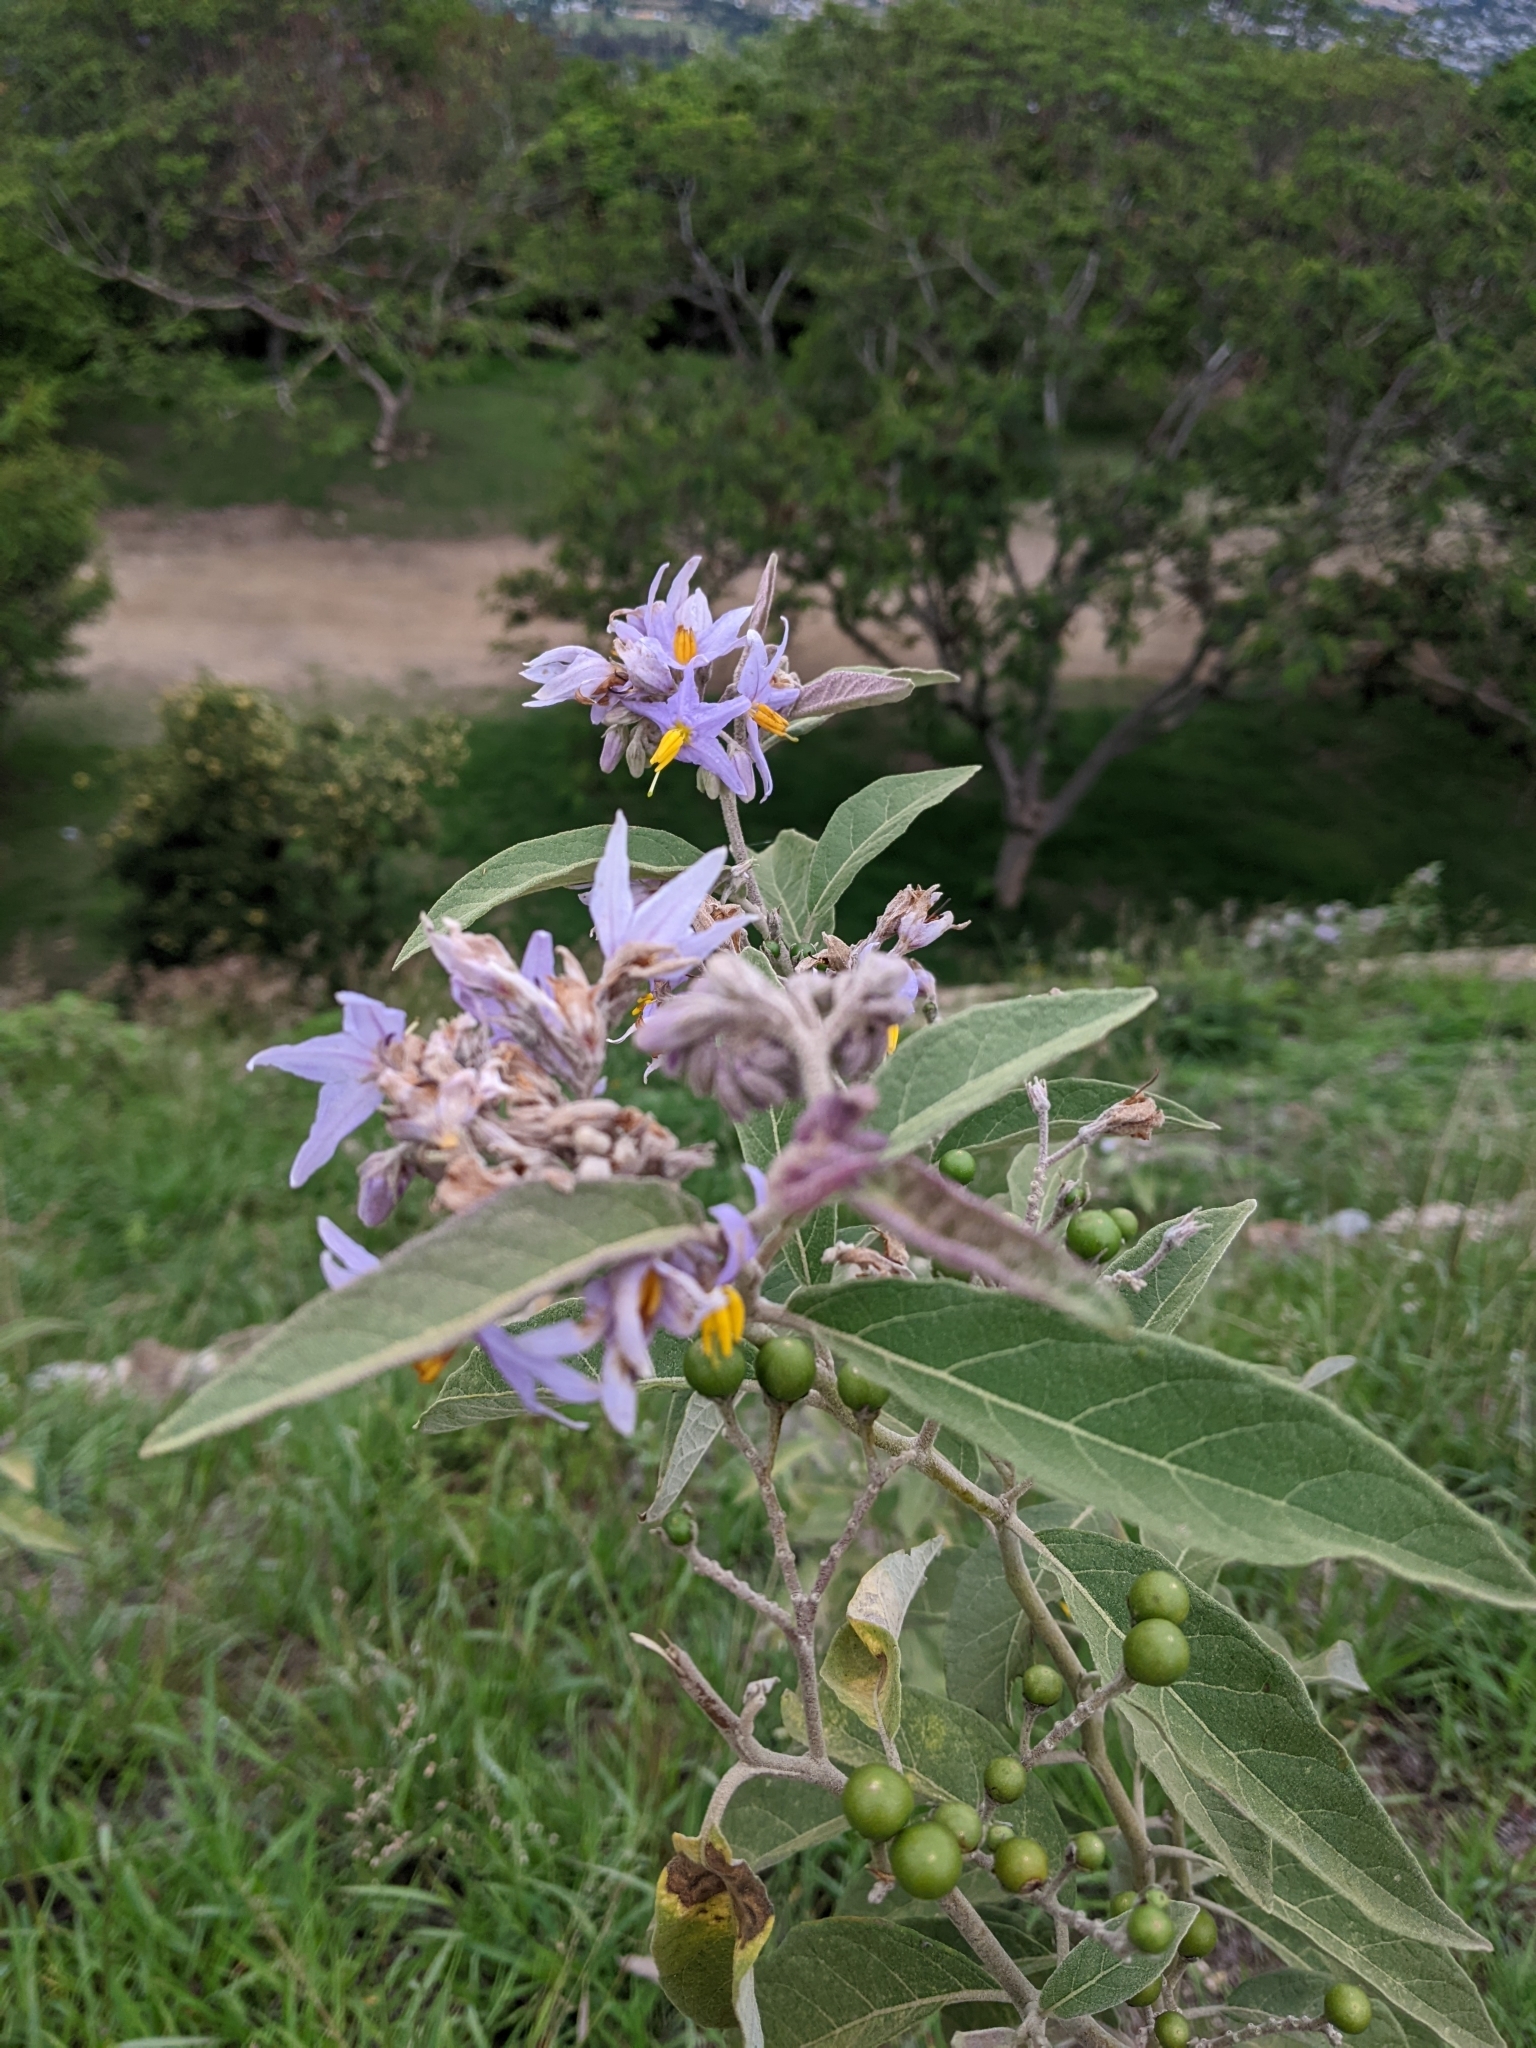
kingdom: Plantae
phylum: Tracheophyta
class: Magnoliopsida
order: Solanales
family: Solanaceae
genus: Solanum
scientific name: Solanum lanceolatum
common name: Orangeberry nightshade
